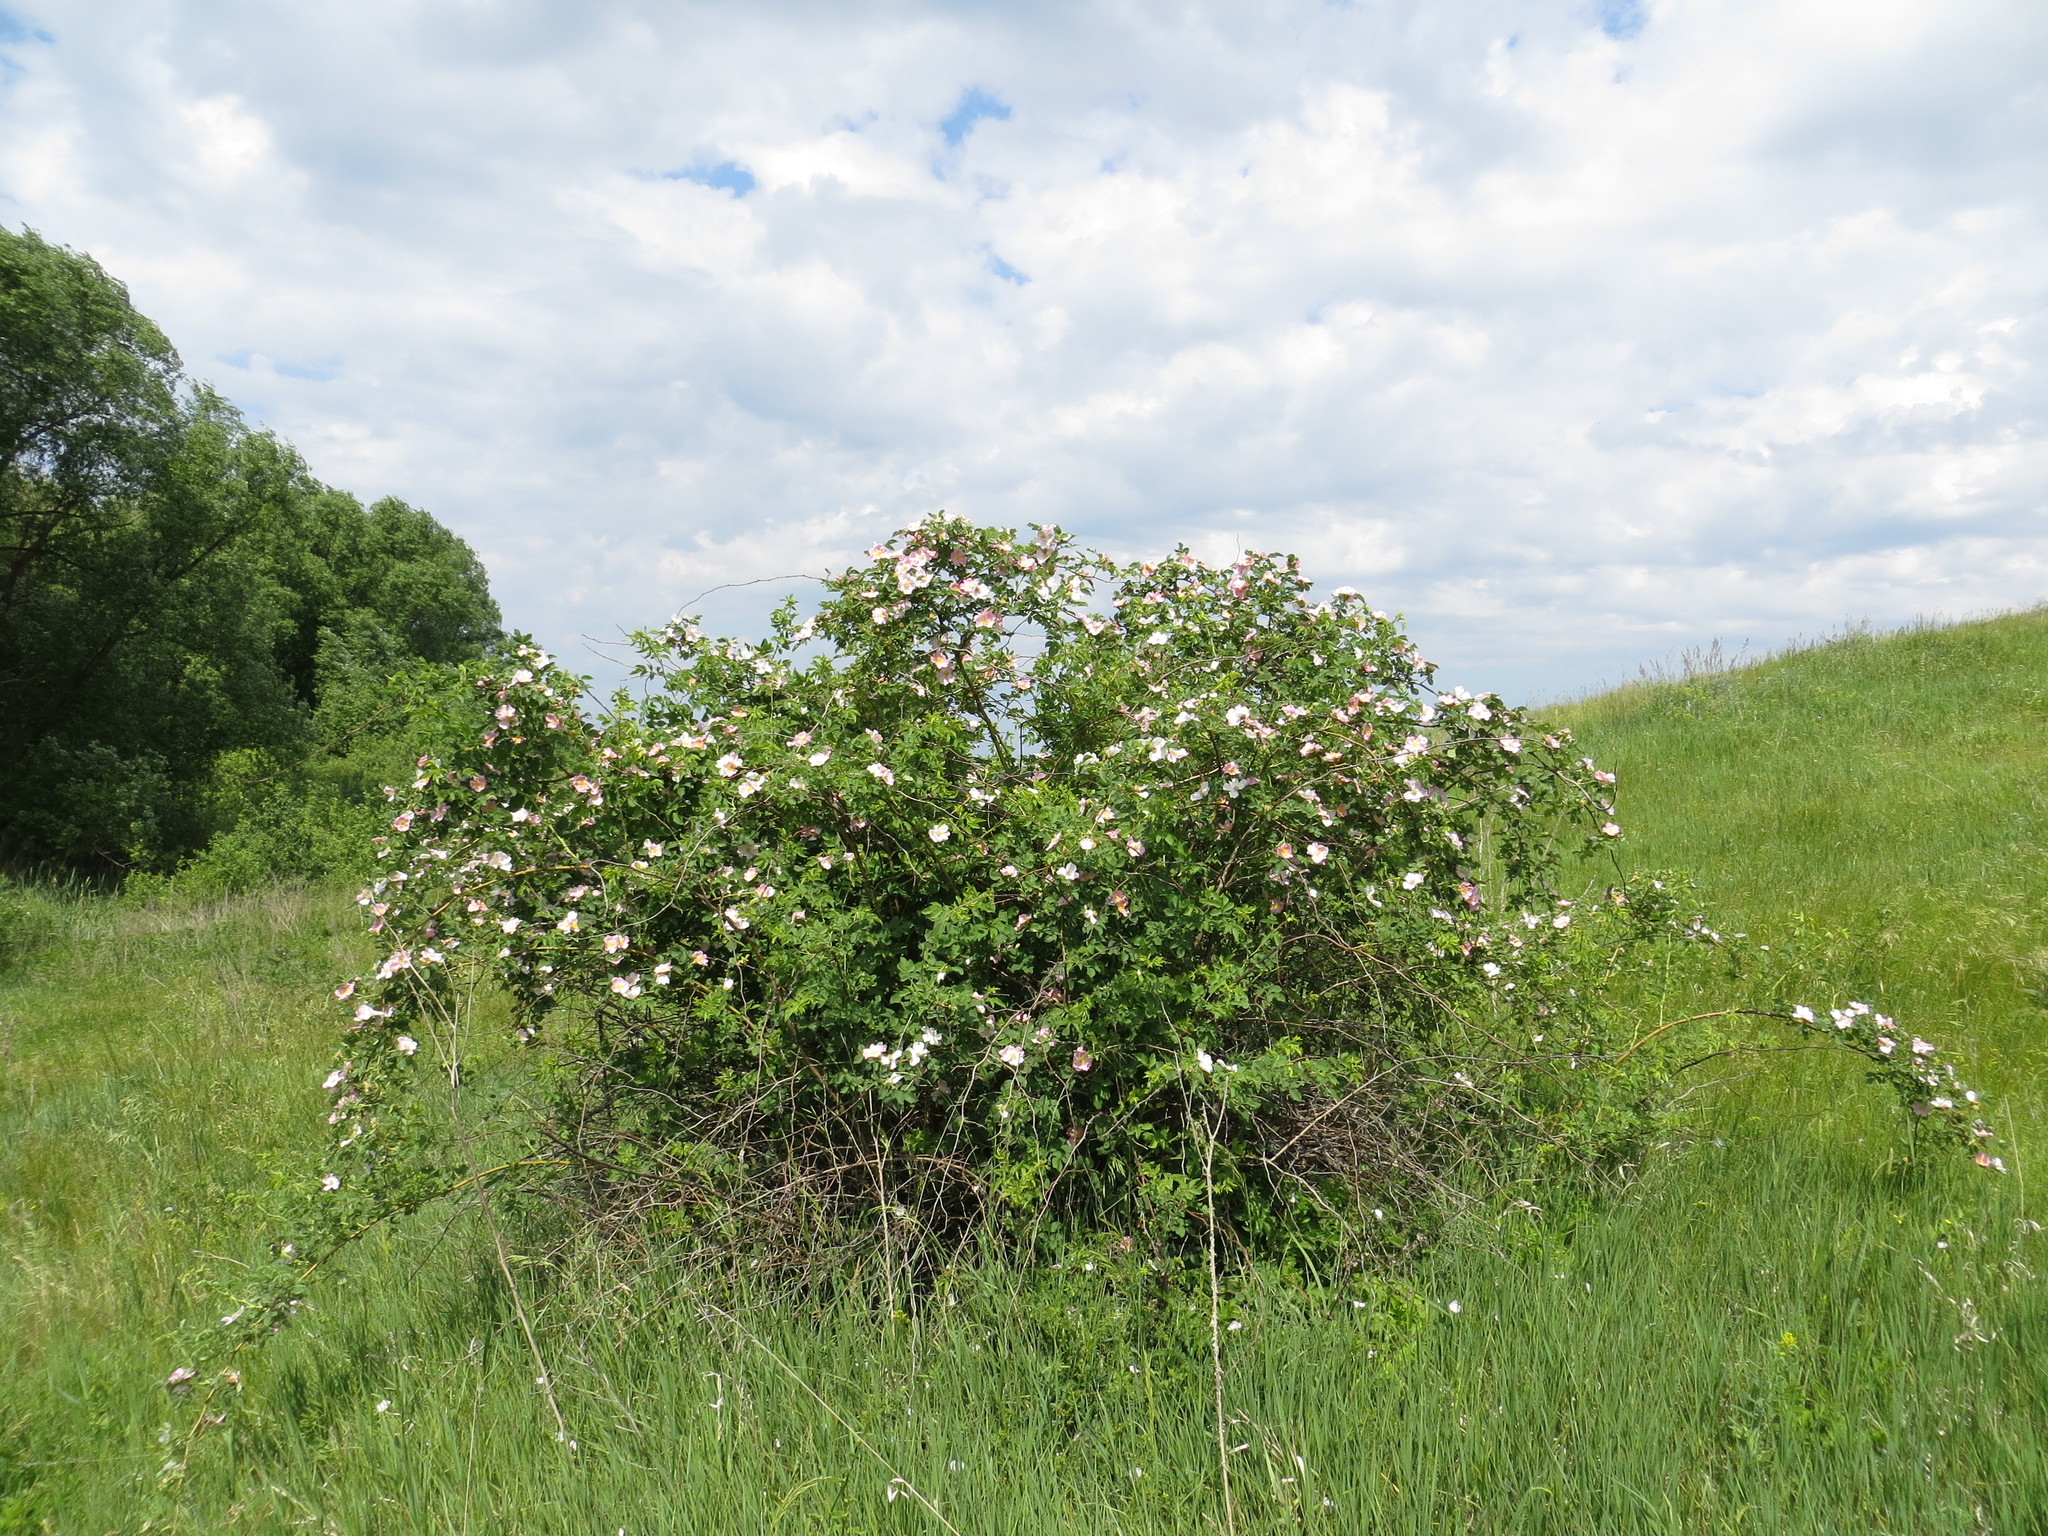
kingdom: Plantae
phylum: Tracheophyta
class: Magnoliopsida
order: Rosales
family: Rosaceae
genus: Rosa
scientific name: Rosa
